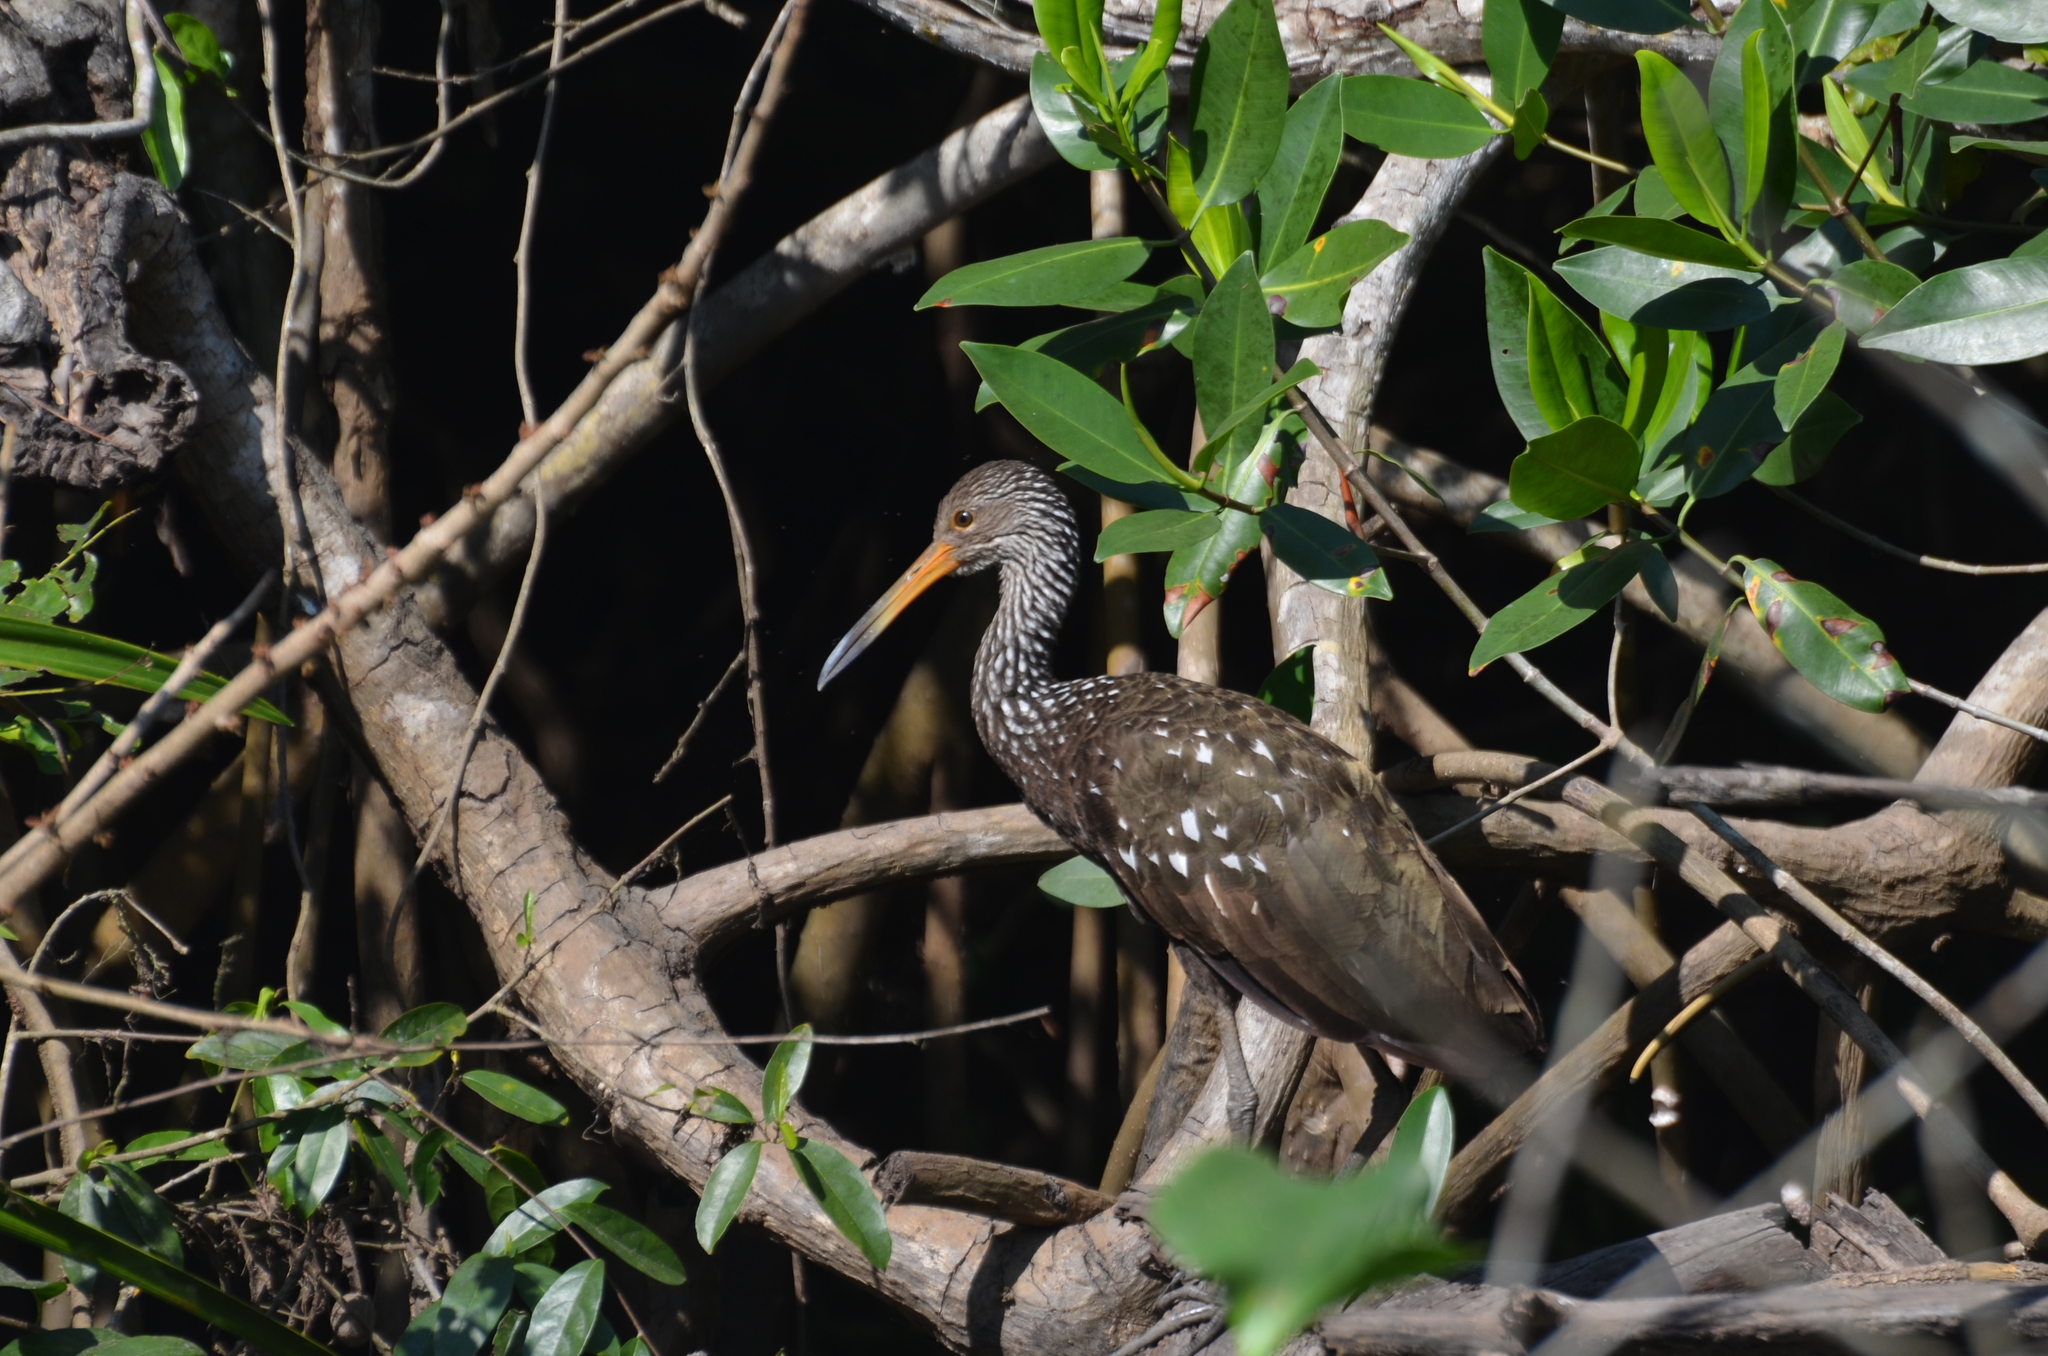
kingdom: Animalia
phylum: Chordata
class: Aves
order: Gruiformes
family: Aramidae
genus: Aramus
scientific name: Aramus guarauna
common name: Limpkin
